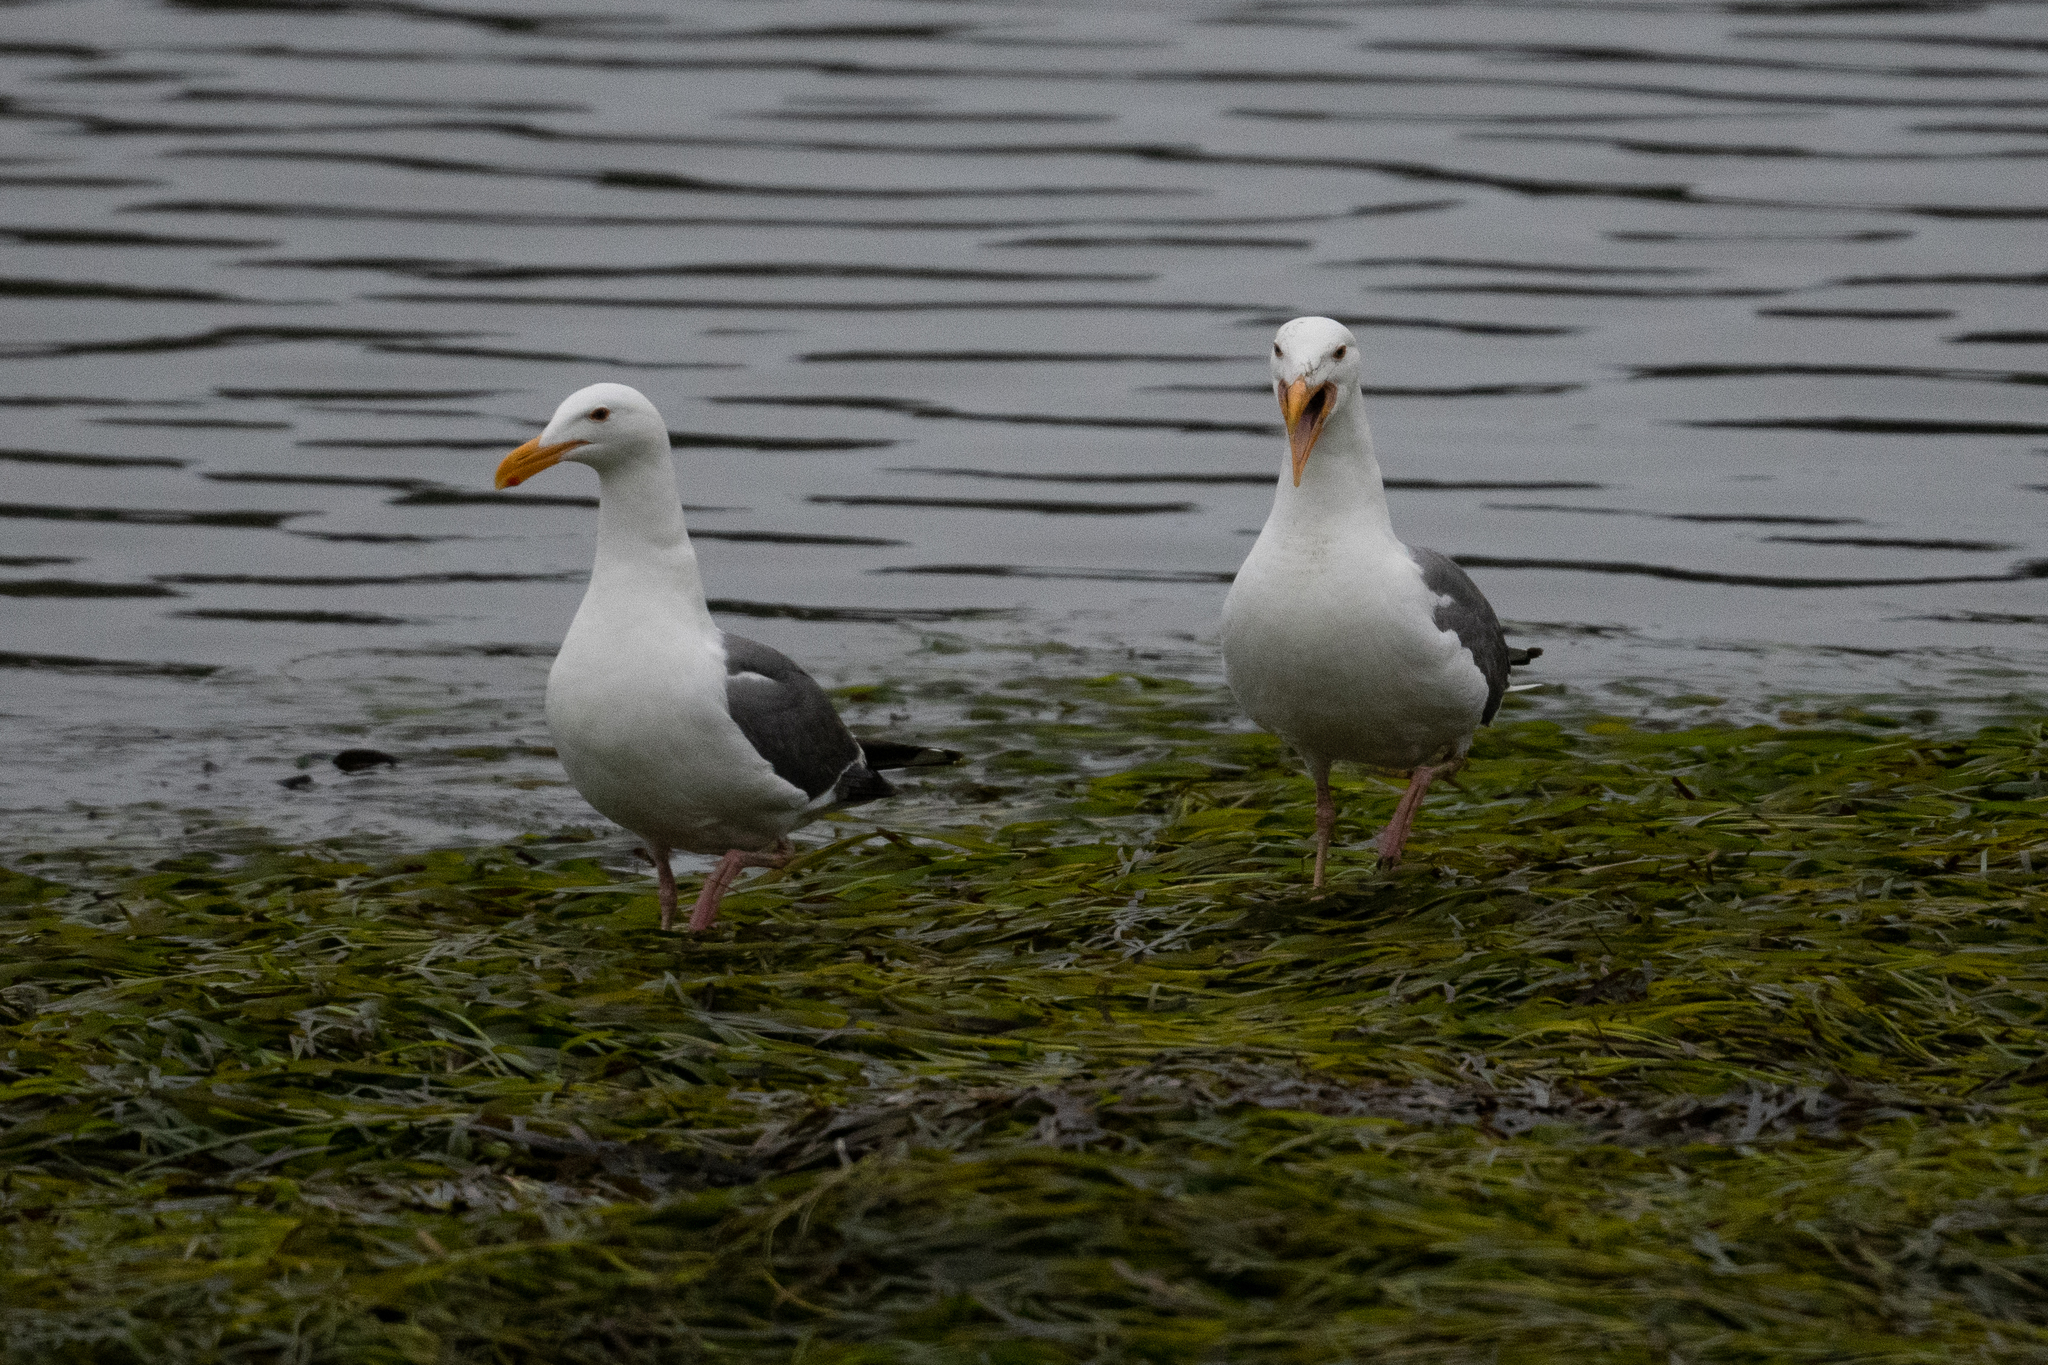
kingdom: Animalia
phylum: Chordata
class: Aves
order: Charadriiformes
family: Laridae
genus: Larus
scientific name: Larus occidentalis
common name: Western gull
